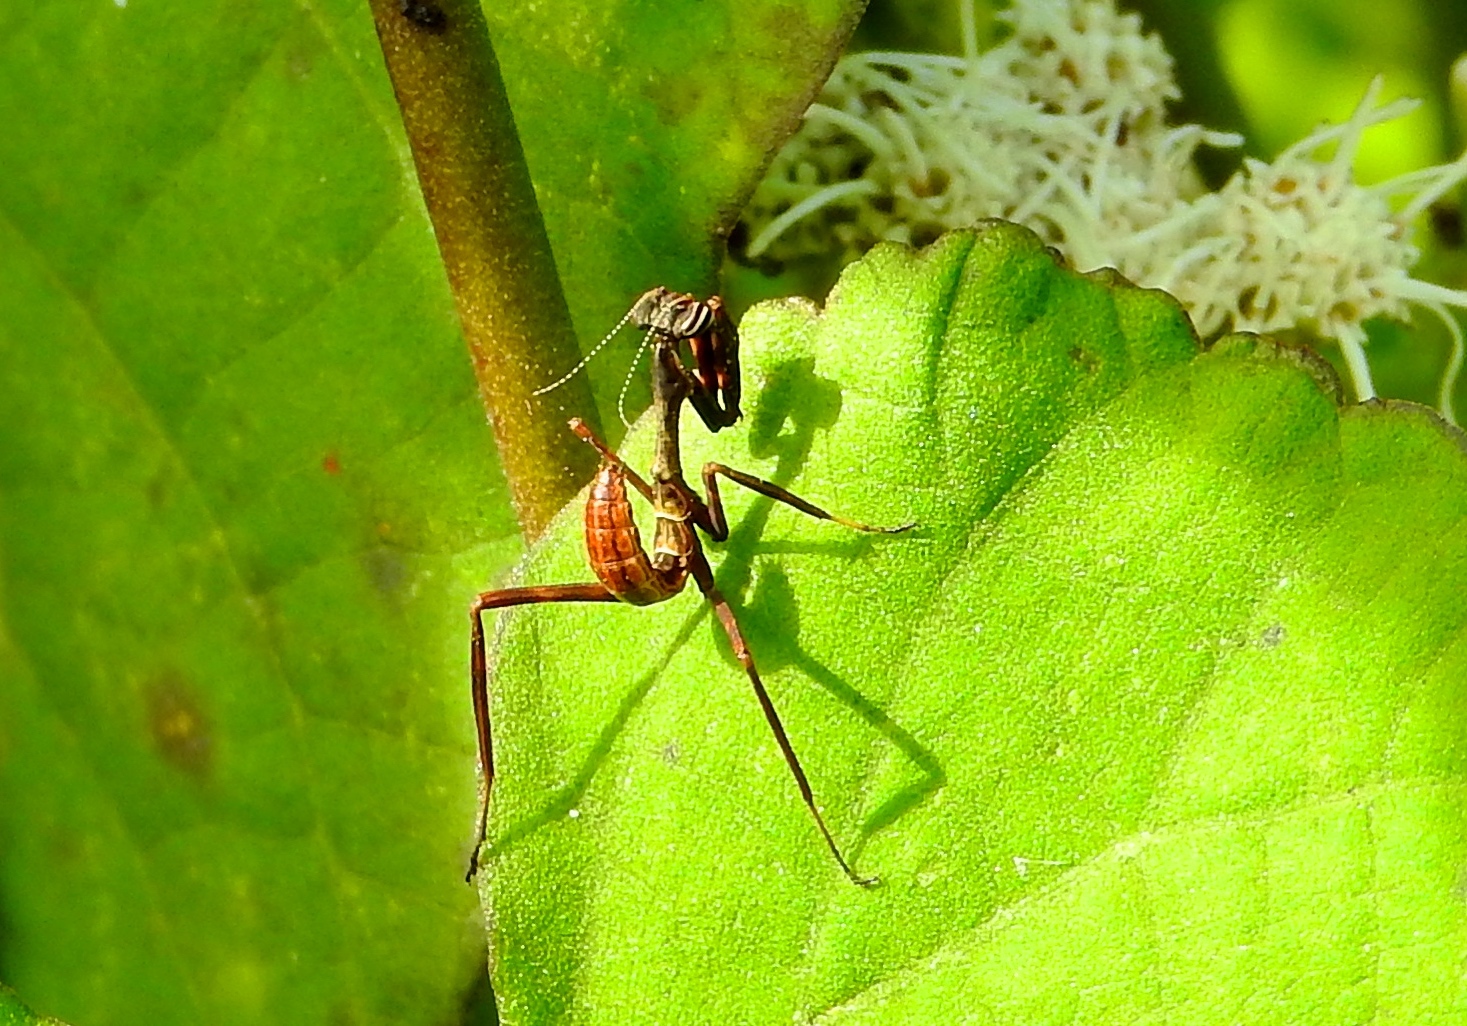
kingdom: Animalia
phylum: Arthropoda
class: Insecta
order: Mantodea
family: Mantidae
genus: Pseudovates
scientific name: Pseudovates chlorophaea
